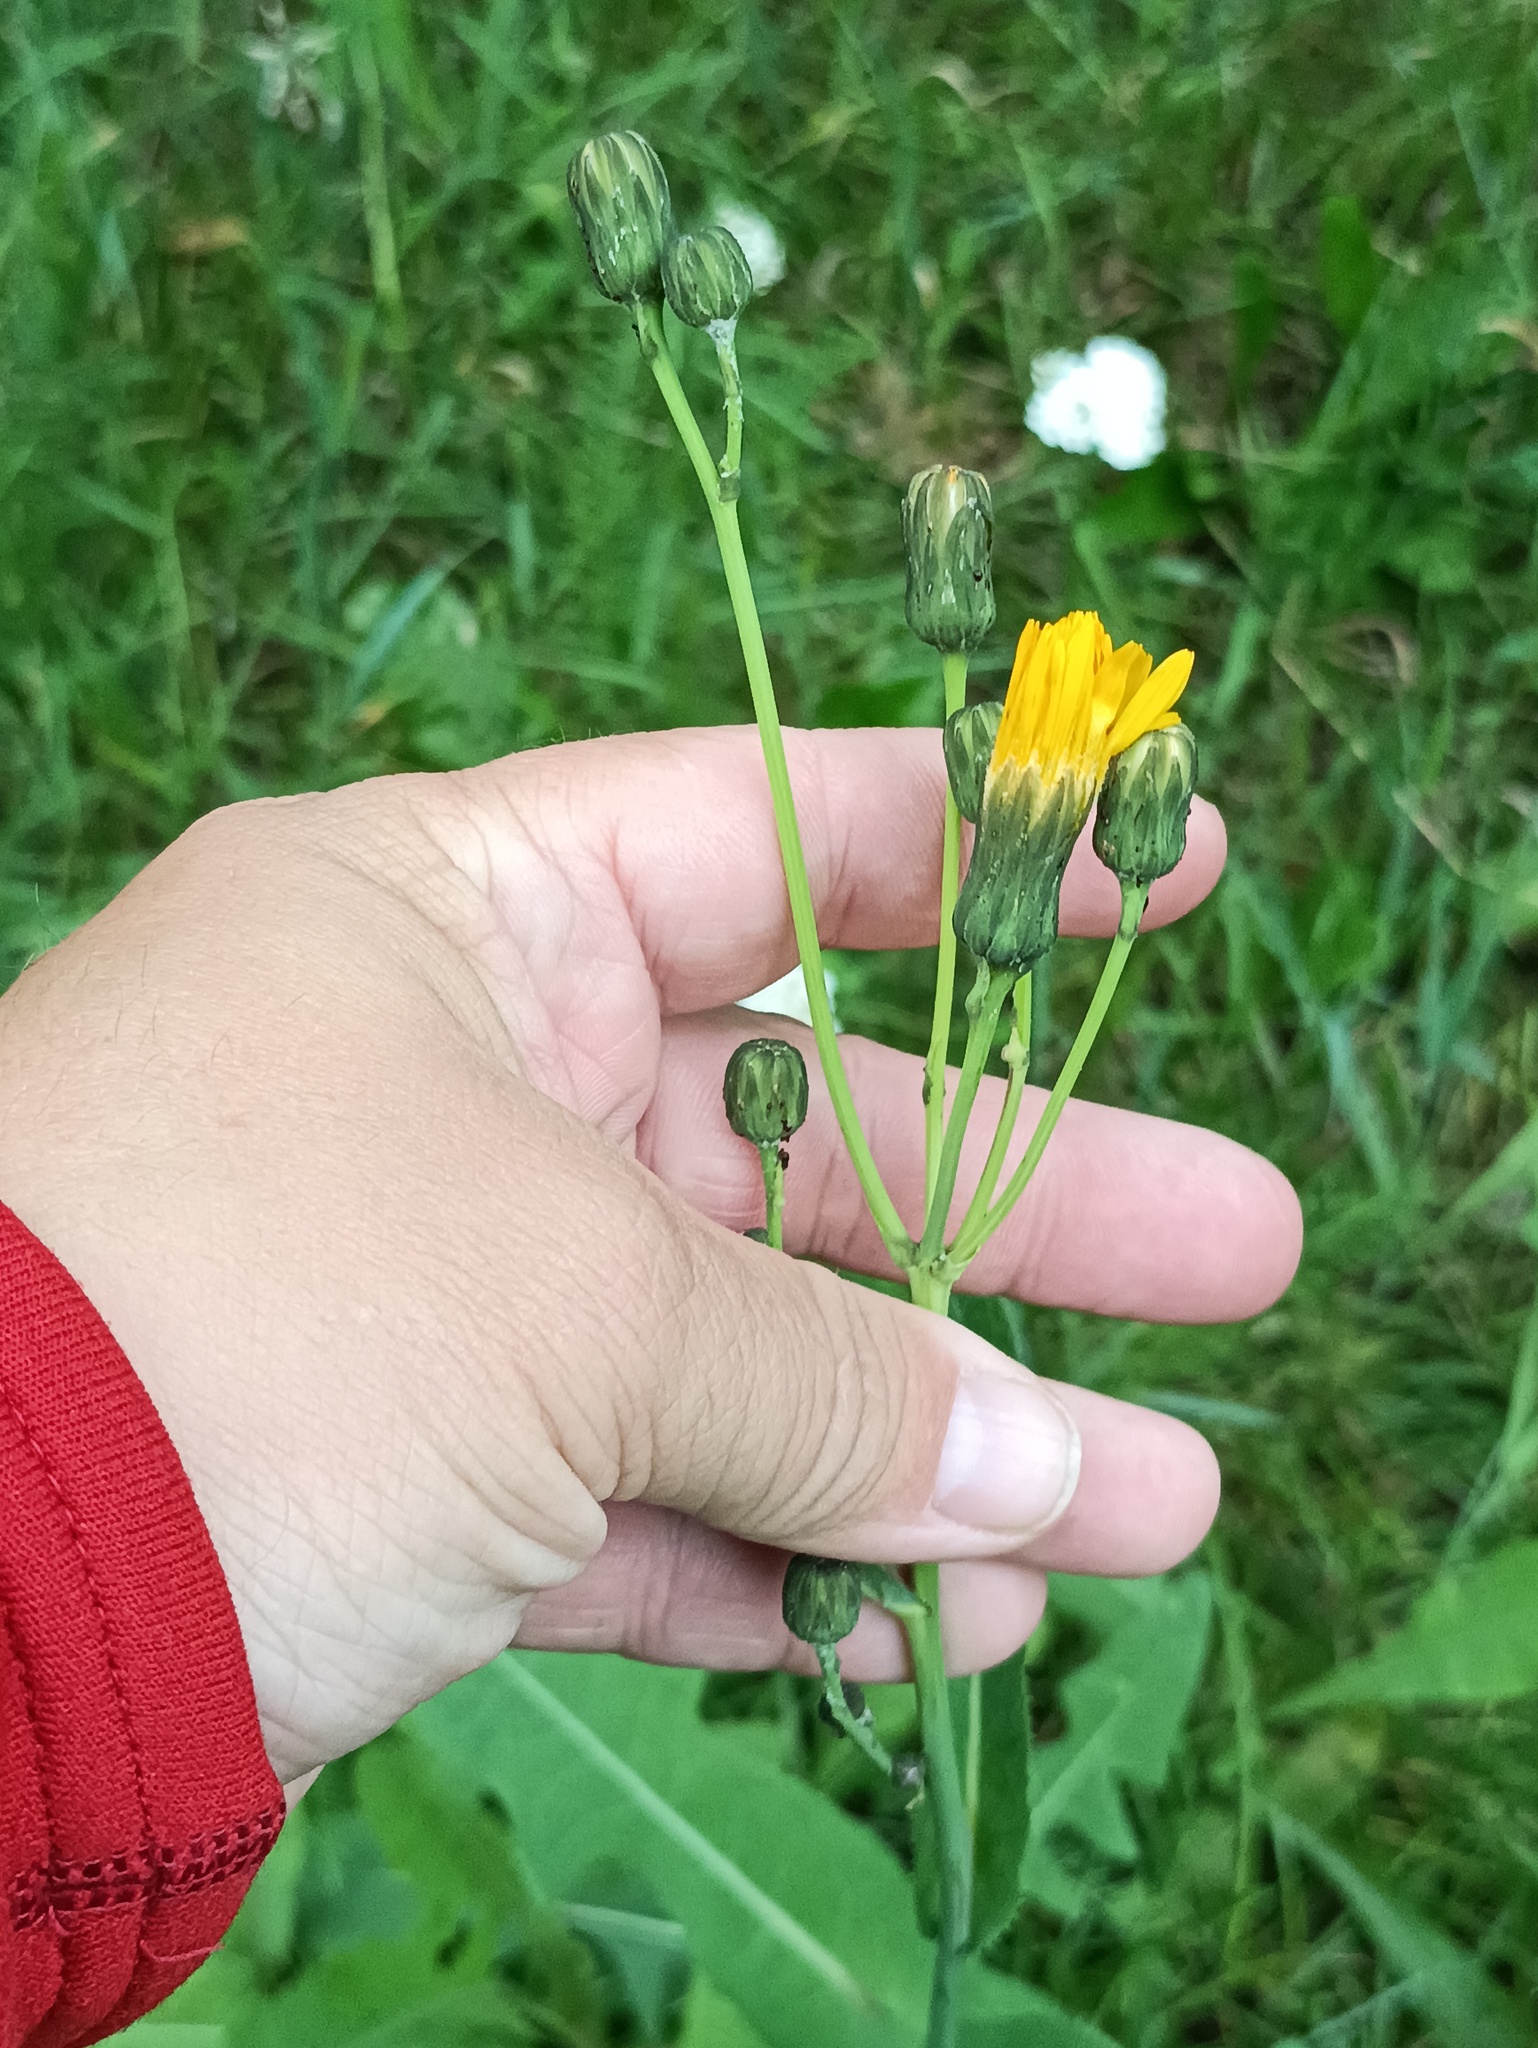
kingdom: Plantae
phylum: Tracheophyta
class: Magnoliopsida
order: Asterales
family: Asteraceae
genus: Sonchus
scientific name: Sonchus arvensis
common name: Perennial sow-thistle
